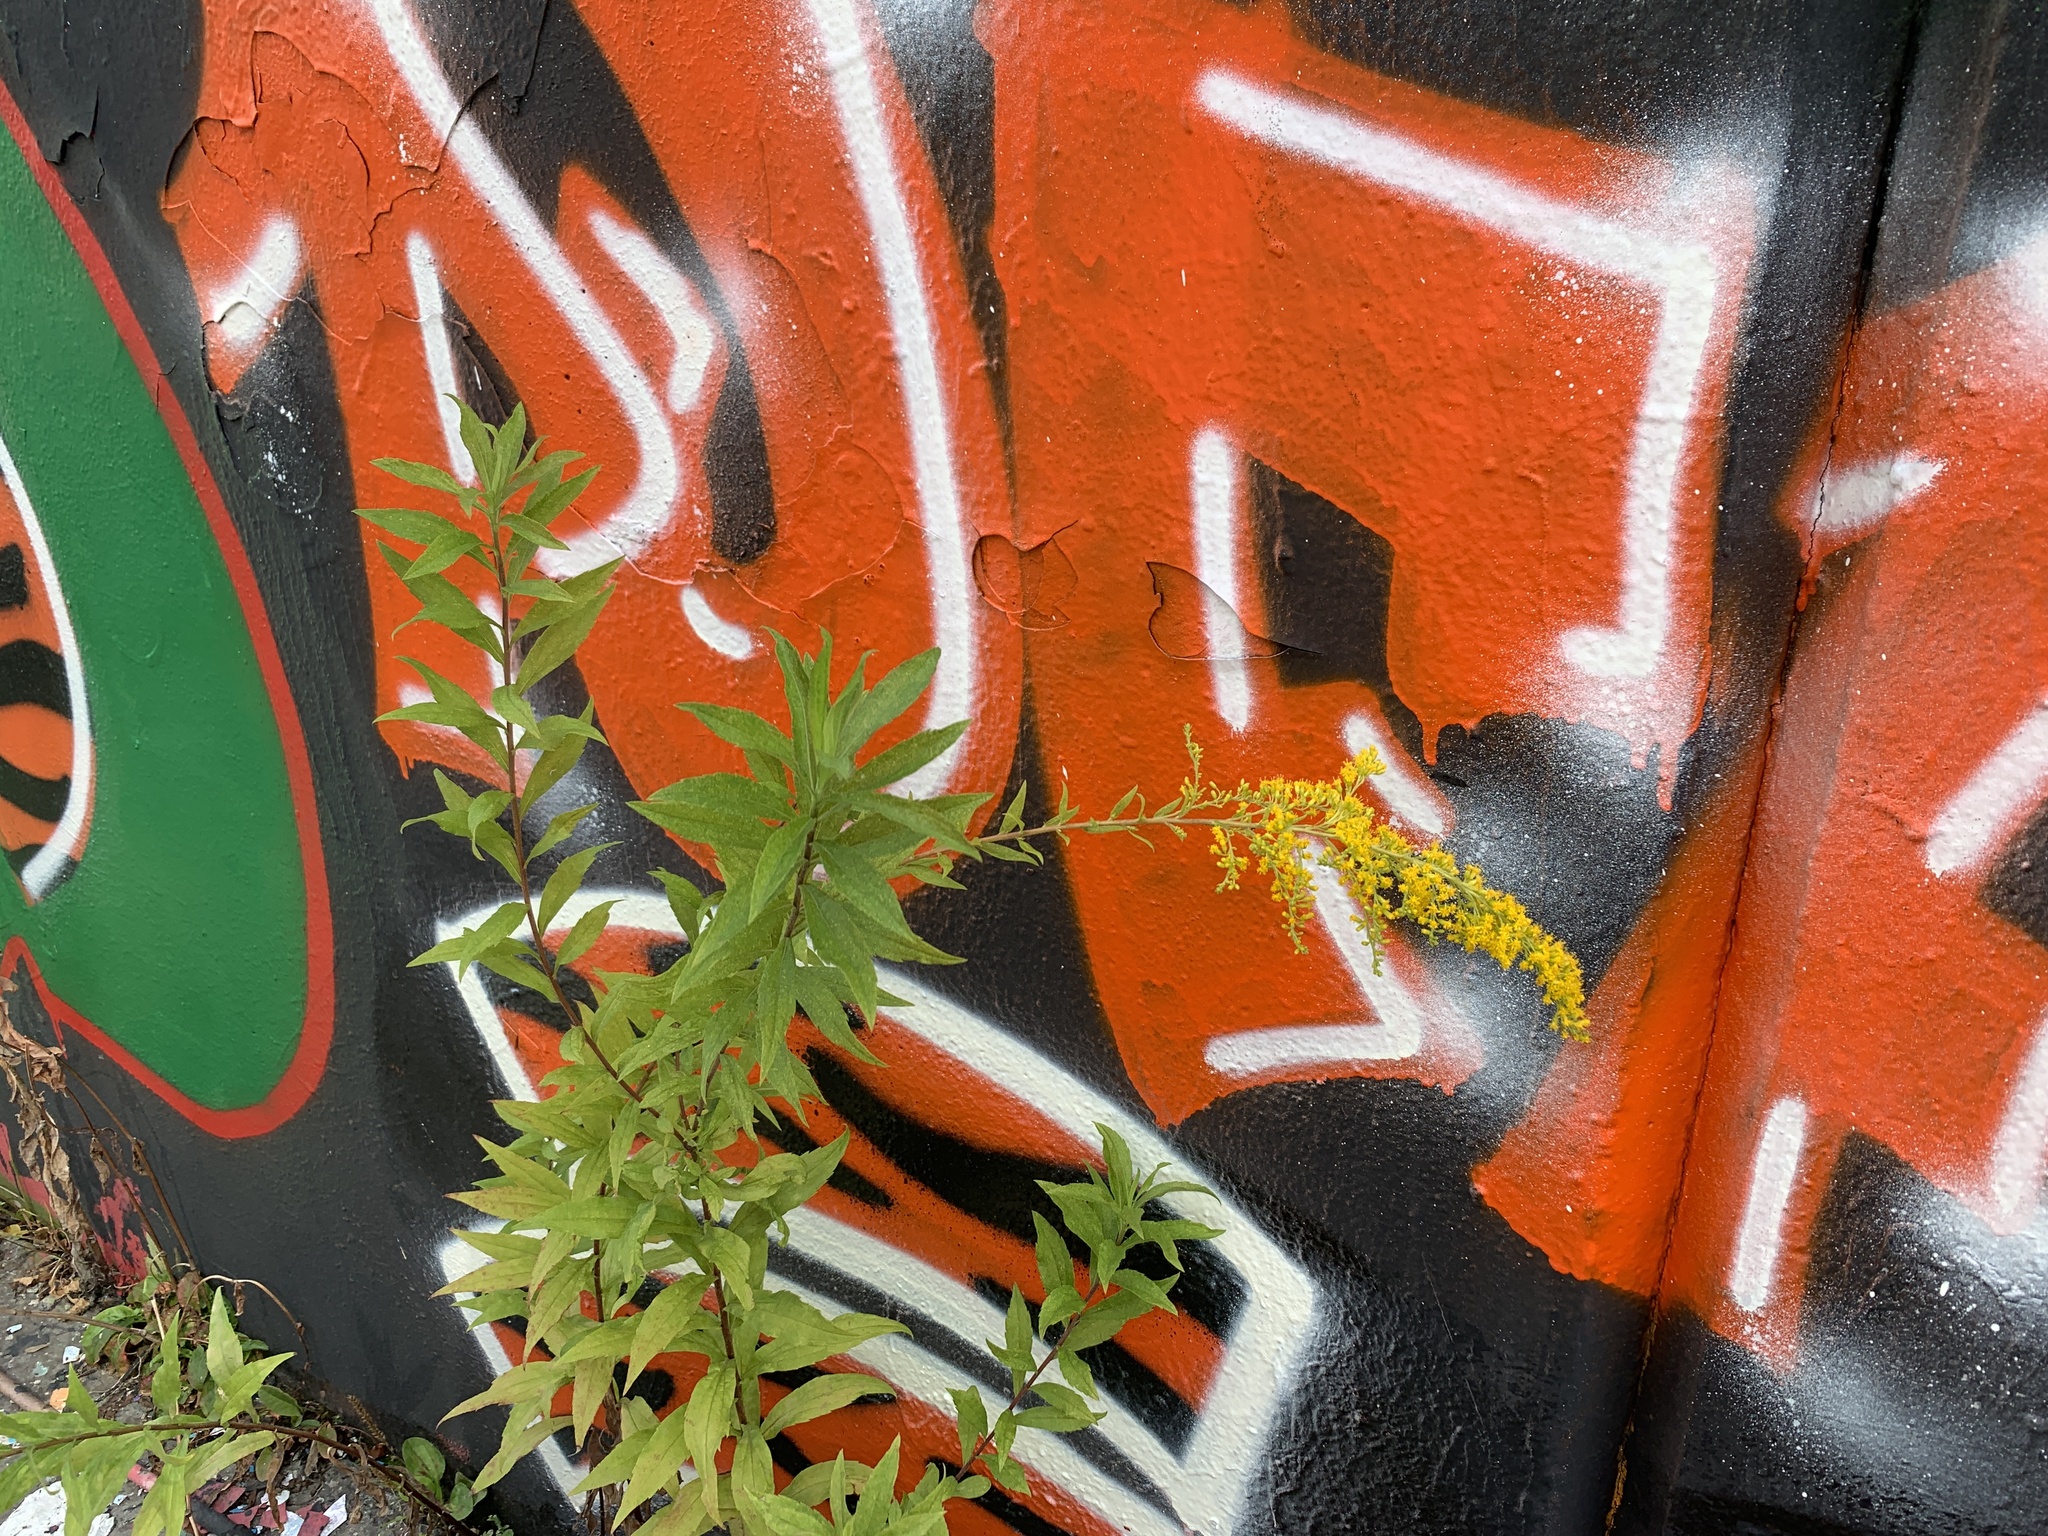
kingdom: Plantae
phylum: Tracheophyta
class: Magnoliopsida
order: Asterales
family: Asteraceae
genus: Solidago
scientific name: Solidago canadensis
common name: Canada goldenrod
